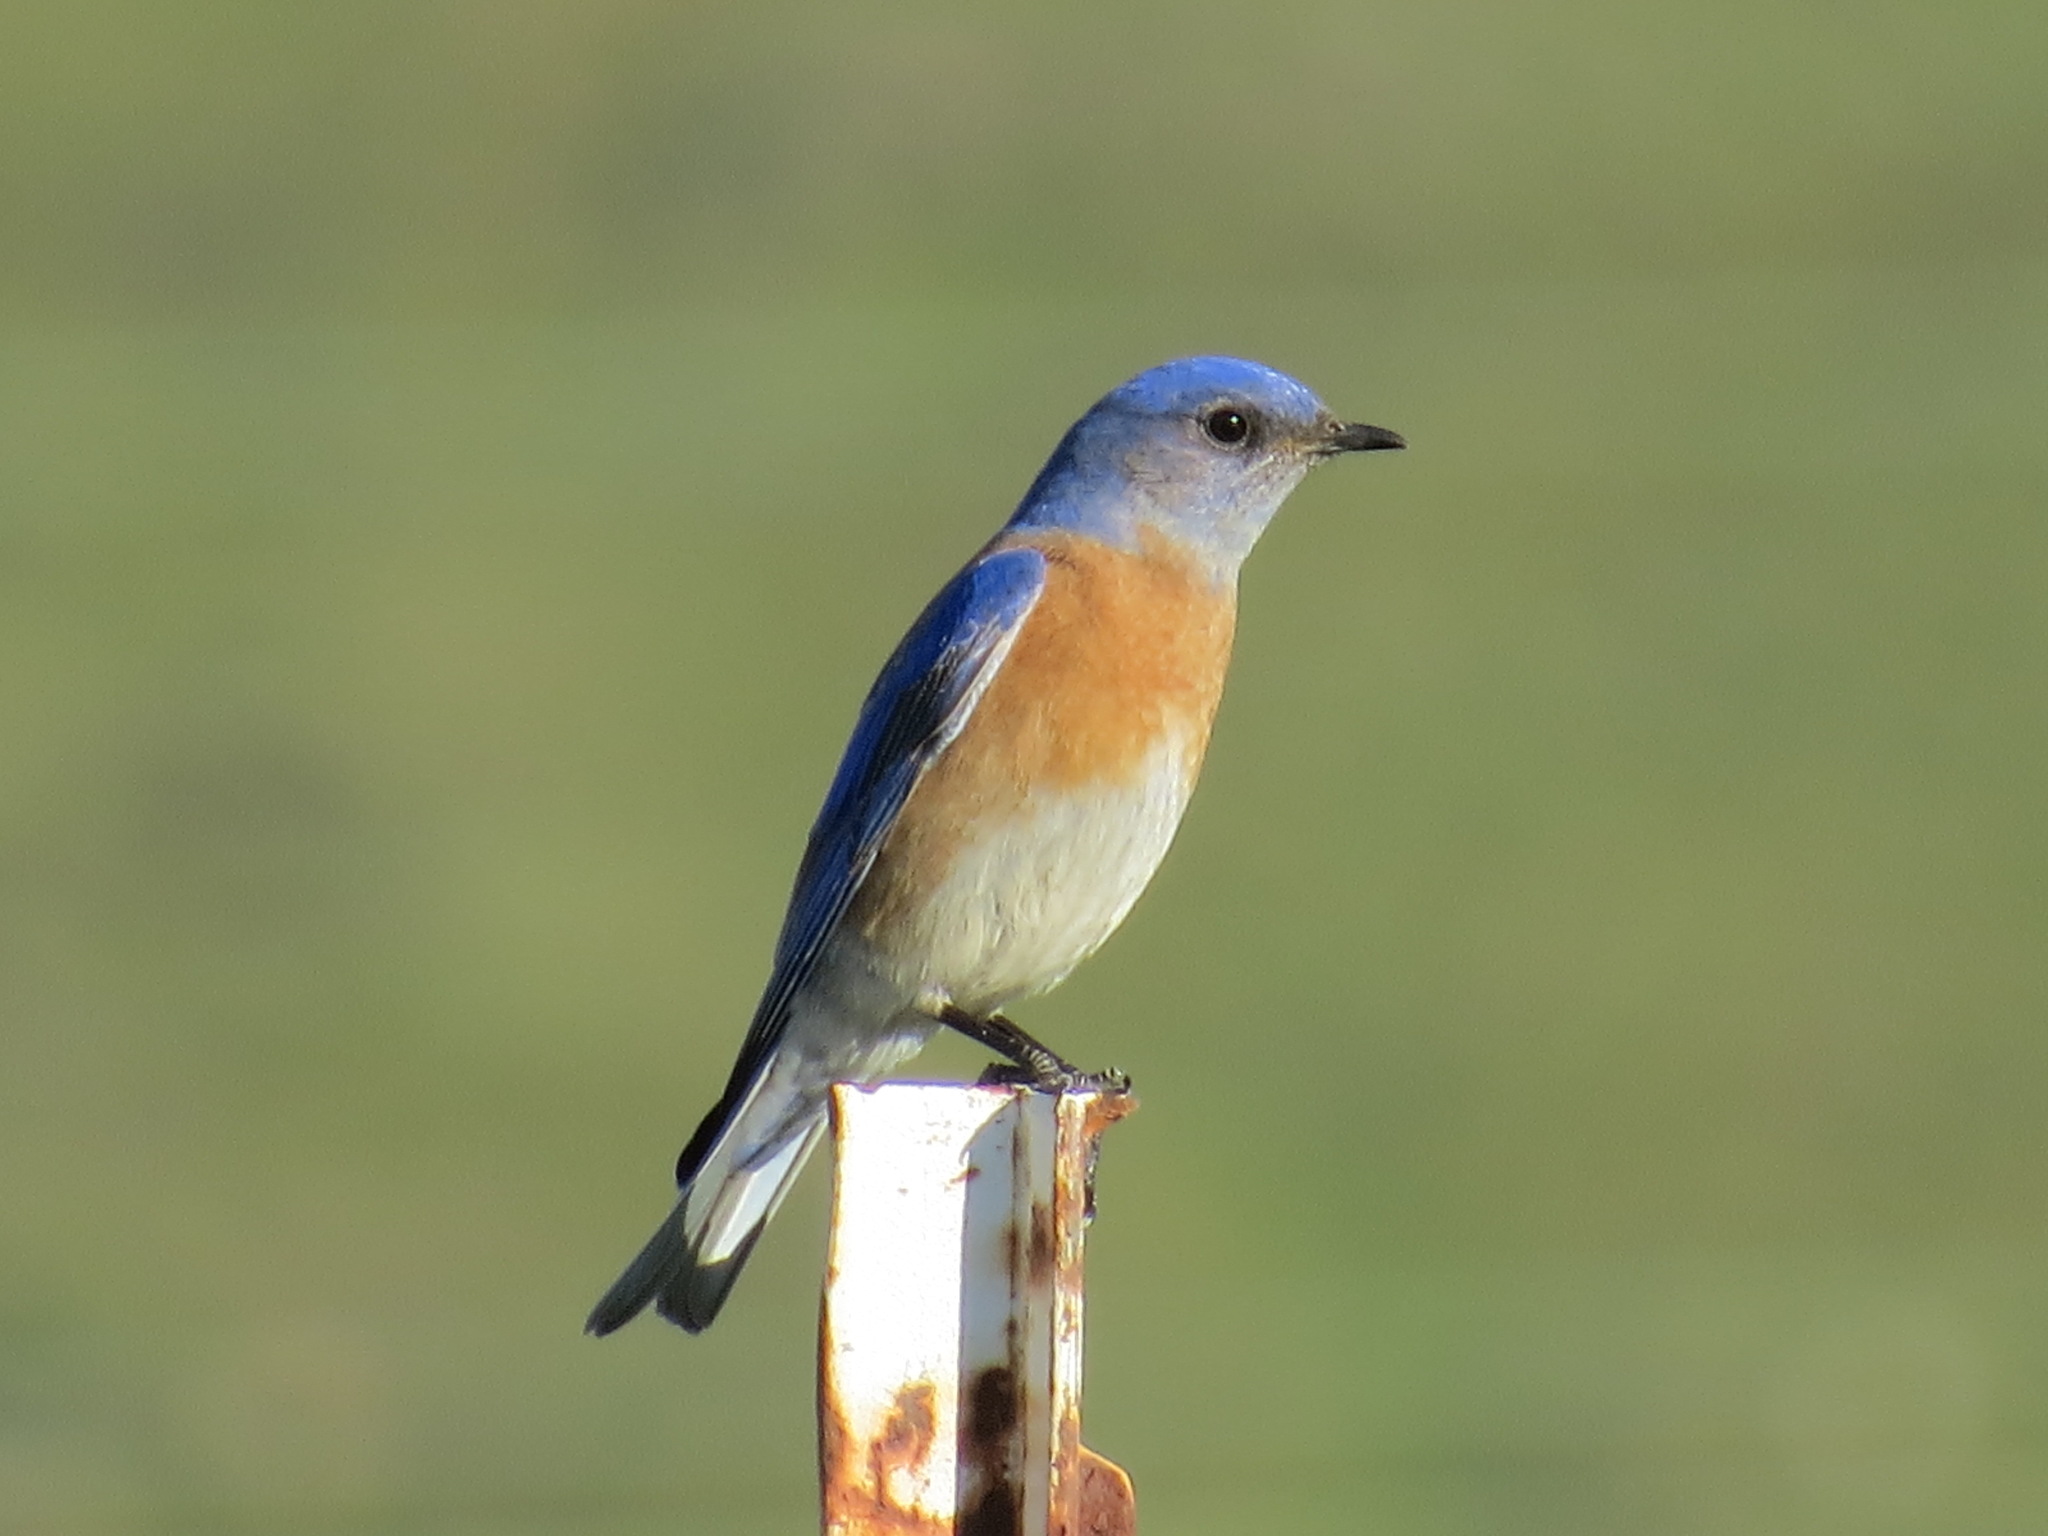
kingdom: Animalia
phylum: Chordata
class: Aves
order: Passeriformes
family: Turdidae
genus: Sialia
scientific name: Sialia mexicana
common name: Western bluebird
